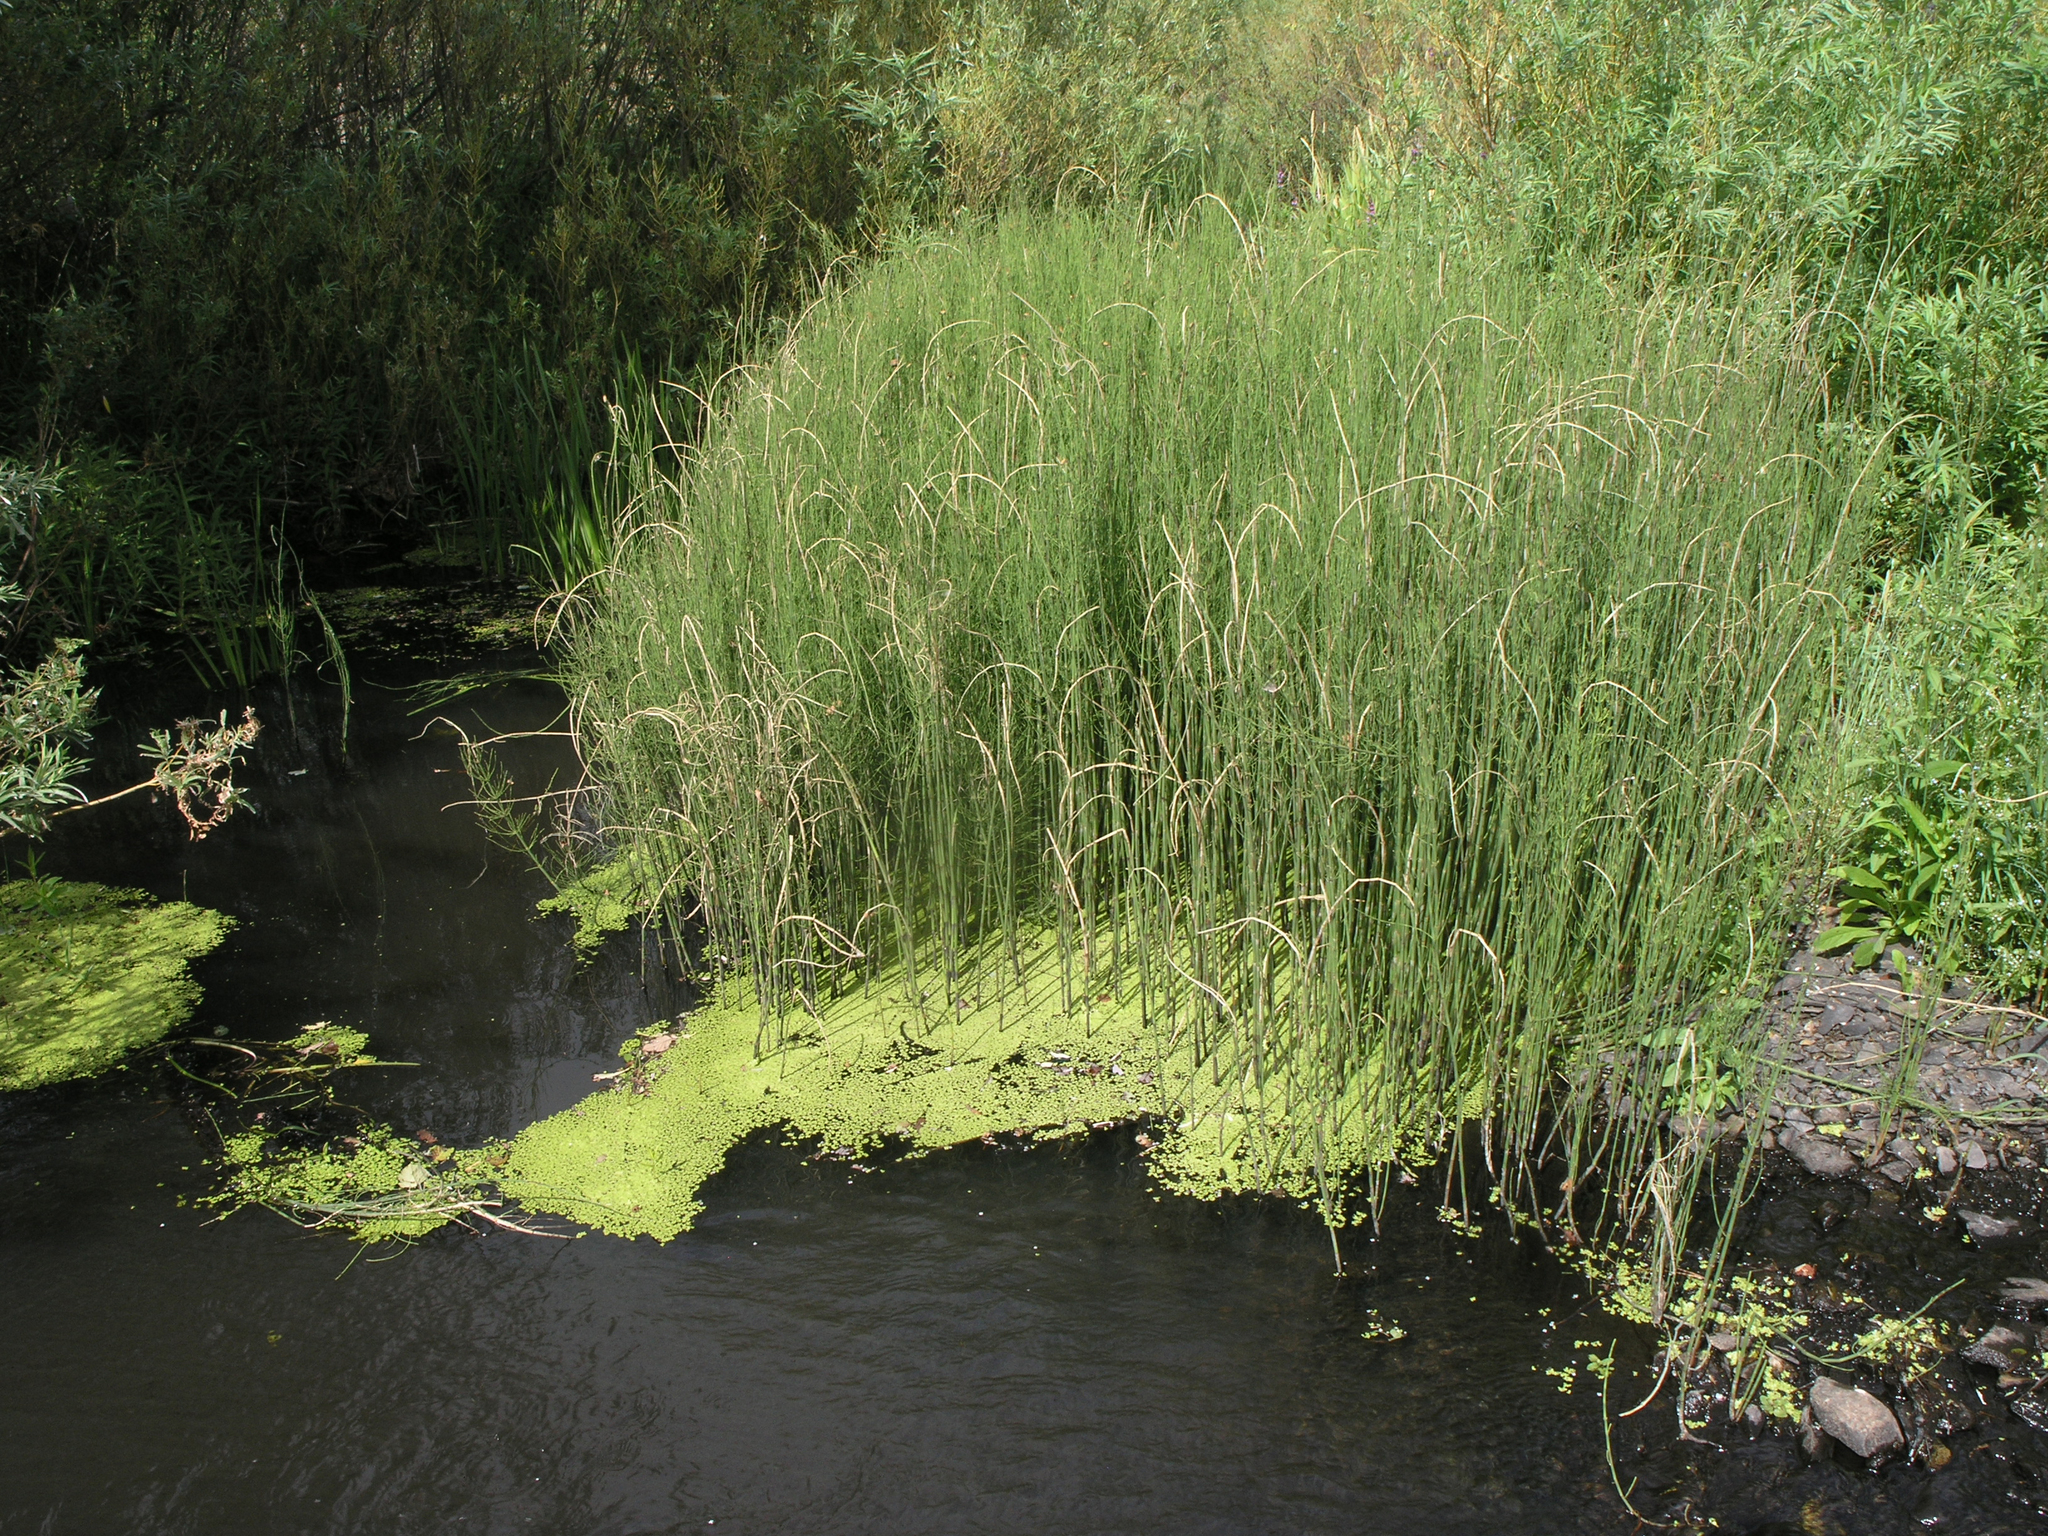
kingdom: Plantae
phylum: Tracheophyta
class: Polypodiopsida
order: Equisetales
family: Equisetaceae
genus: Equisetum
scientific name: Equisetum fluviatile
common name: Water horsetail
